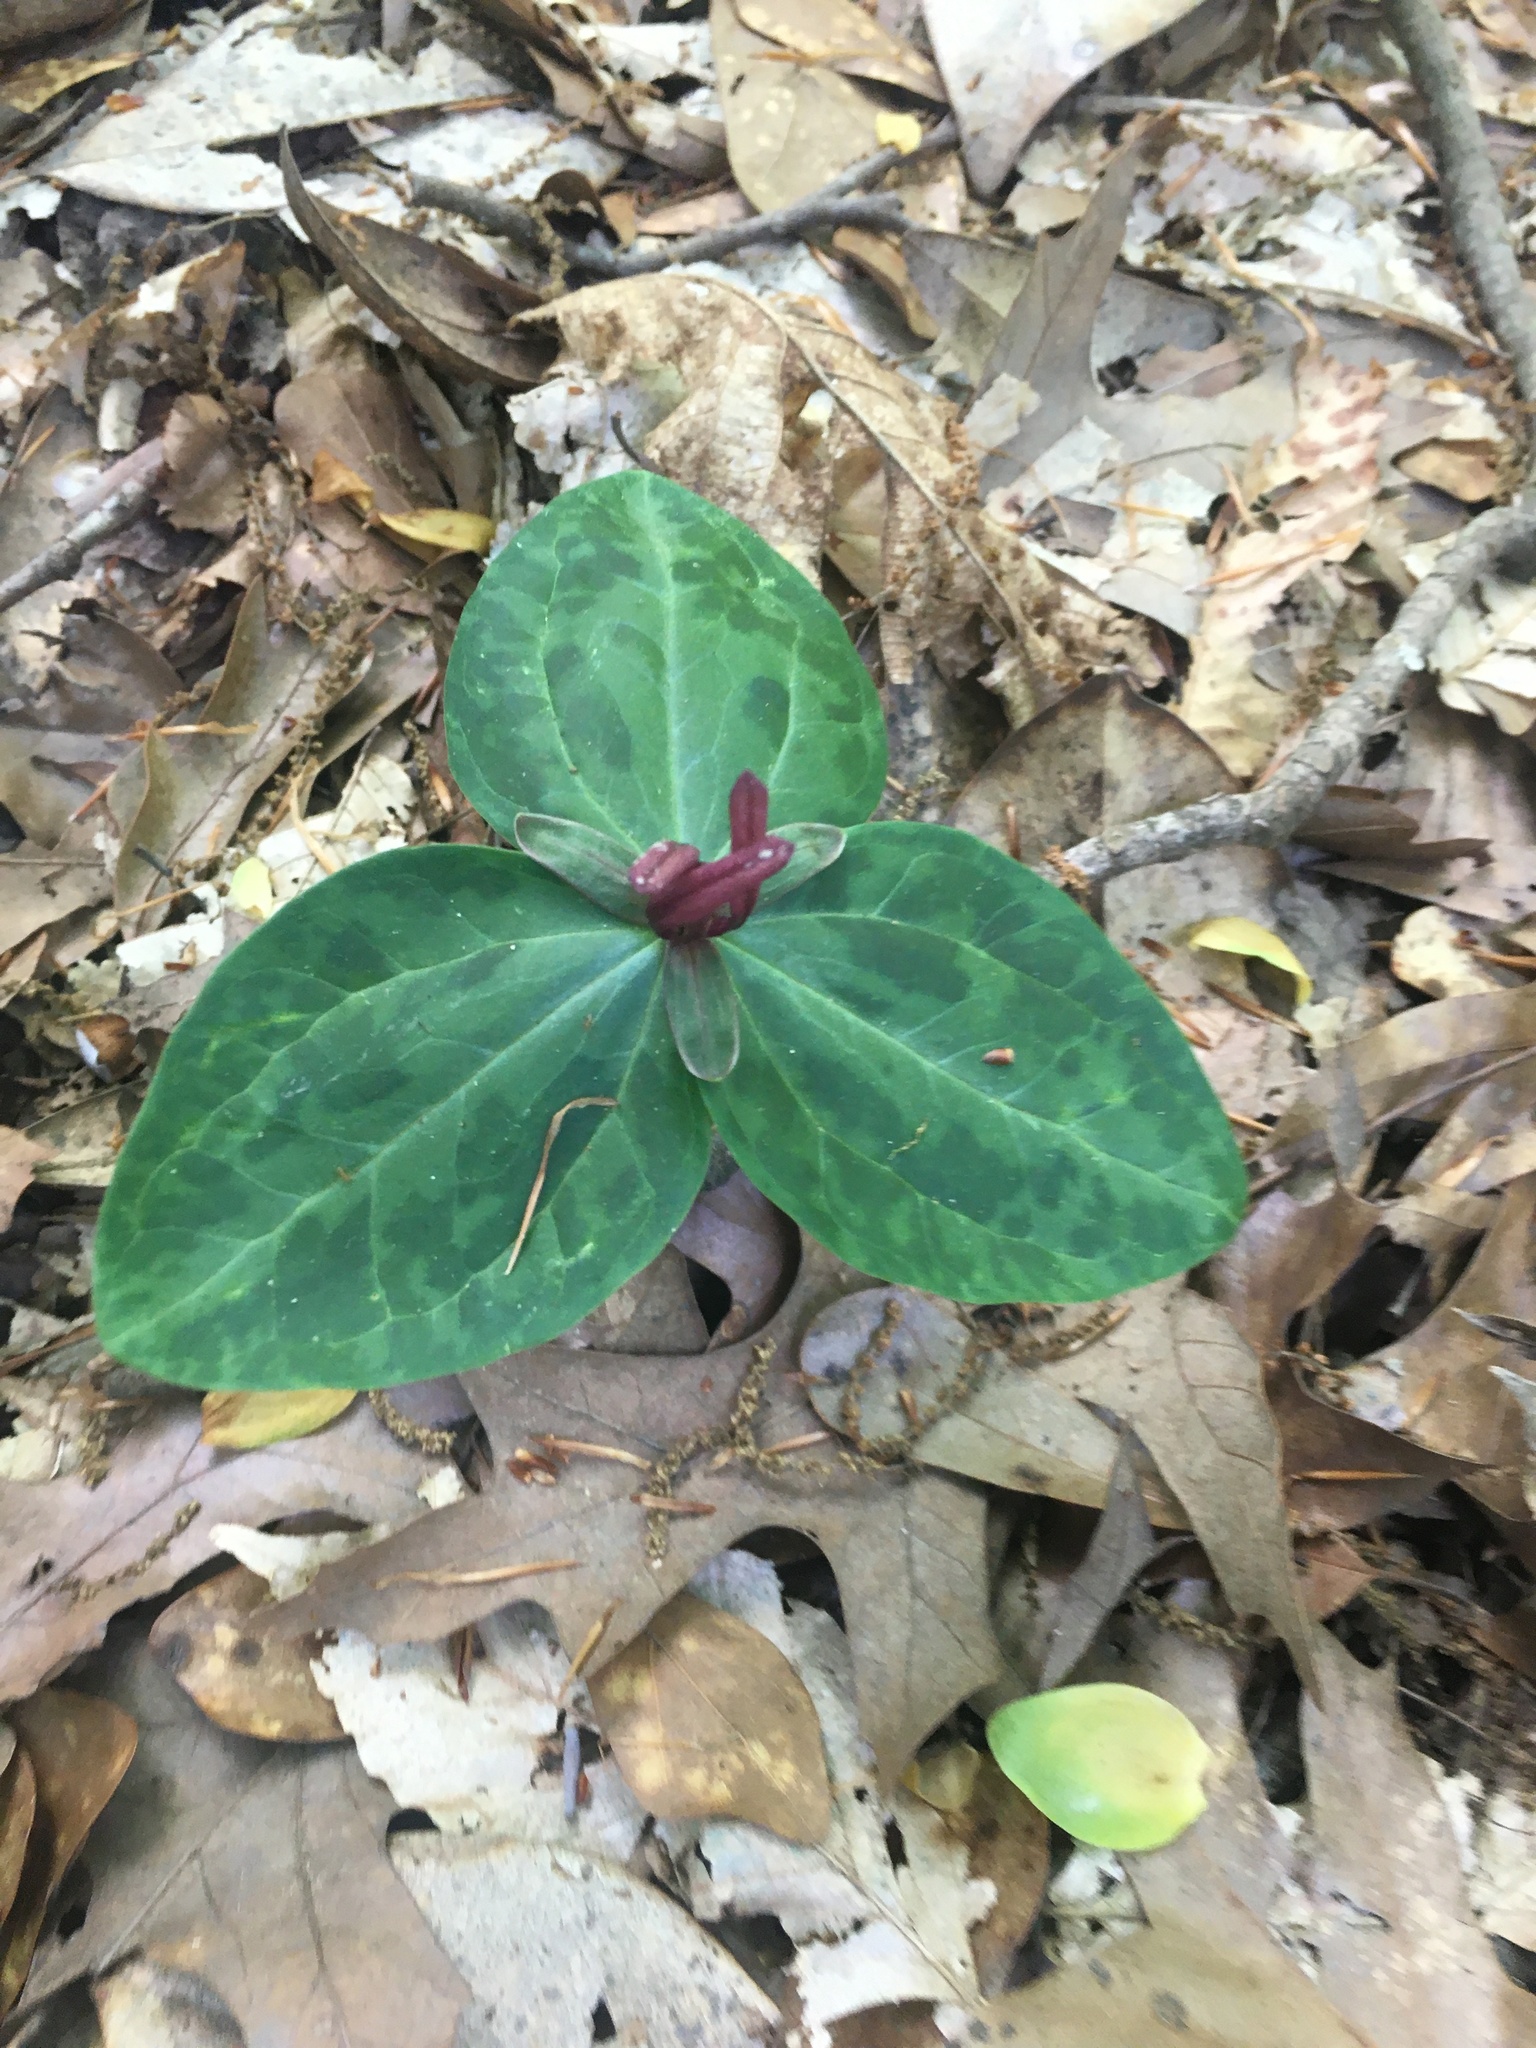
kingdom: Plantae
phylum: Tracheophyta
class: Liliopsida
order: Liliales
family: Melanthiaceae
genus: Trillium
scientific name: Trillium foetidissimum
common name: Mississippi river trillium
